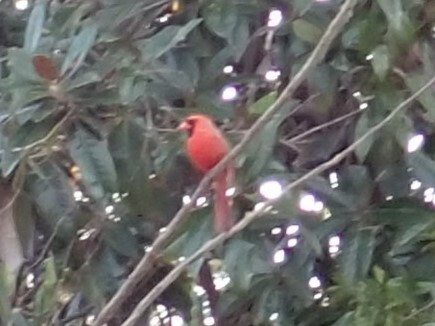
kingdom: Animalia
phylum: Chordata
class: Aves
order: Passeriformes
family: Cardinalidae
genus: Cardinalis
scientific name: Cardinalis cardinalis
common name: Northern cardinal
